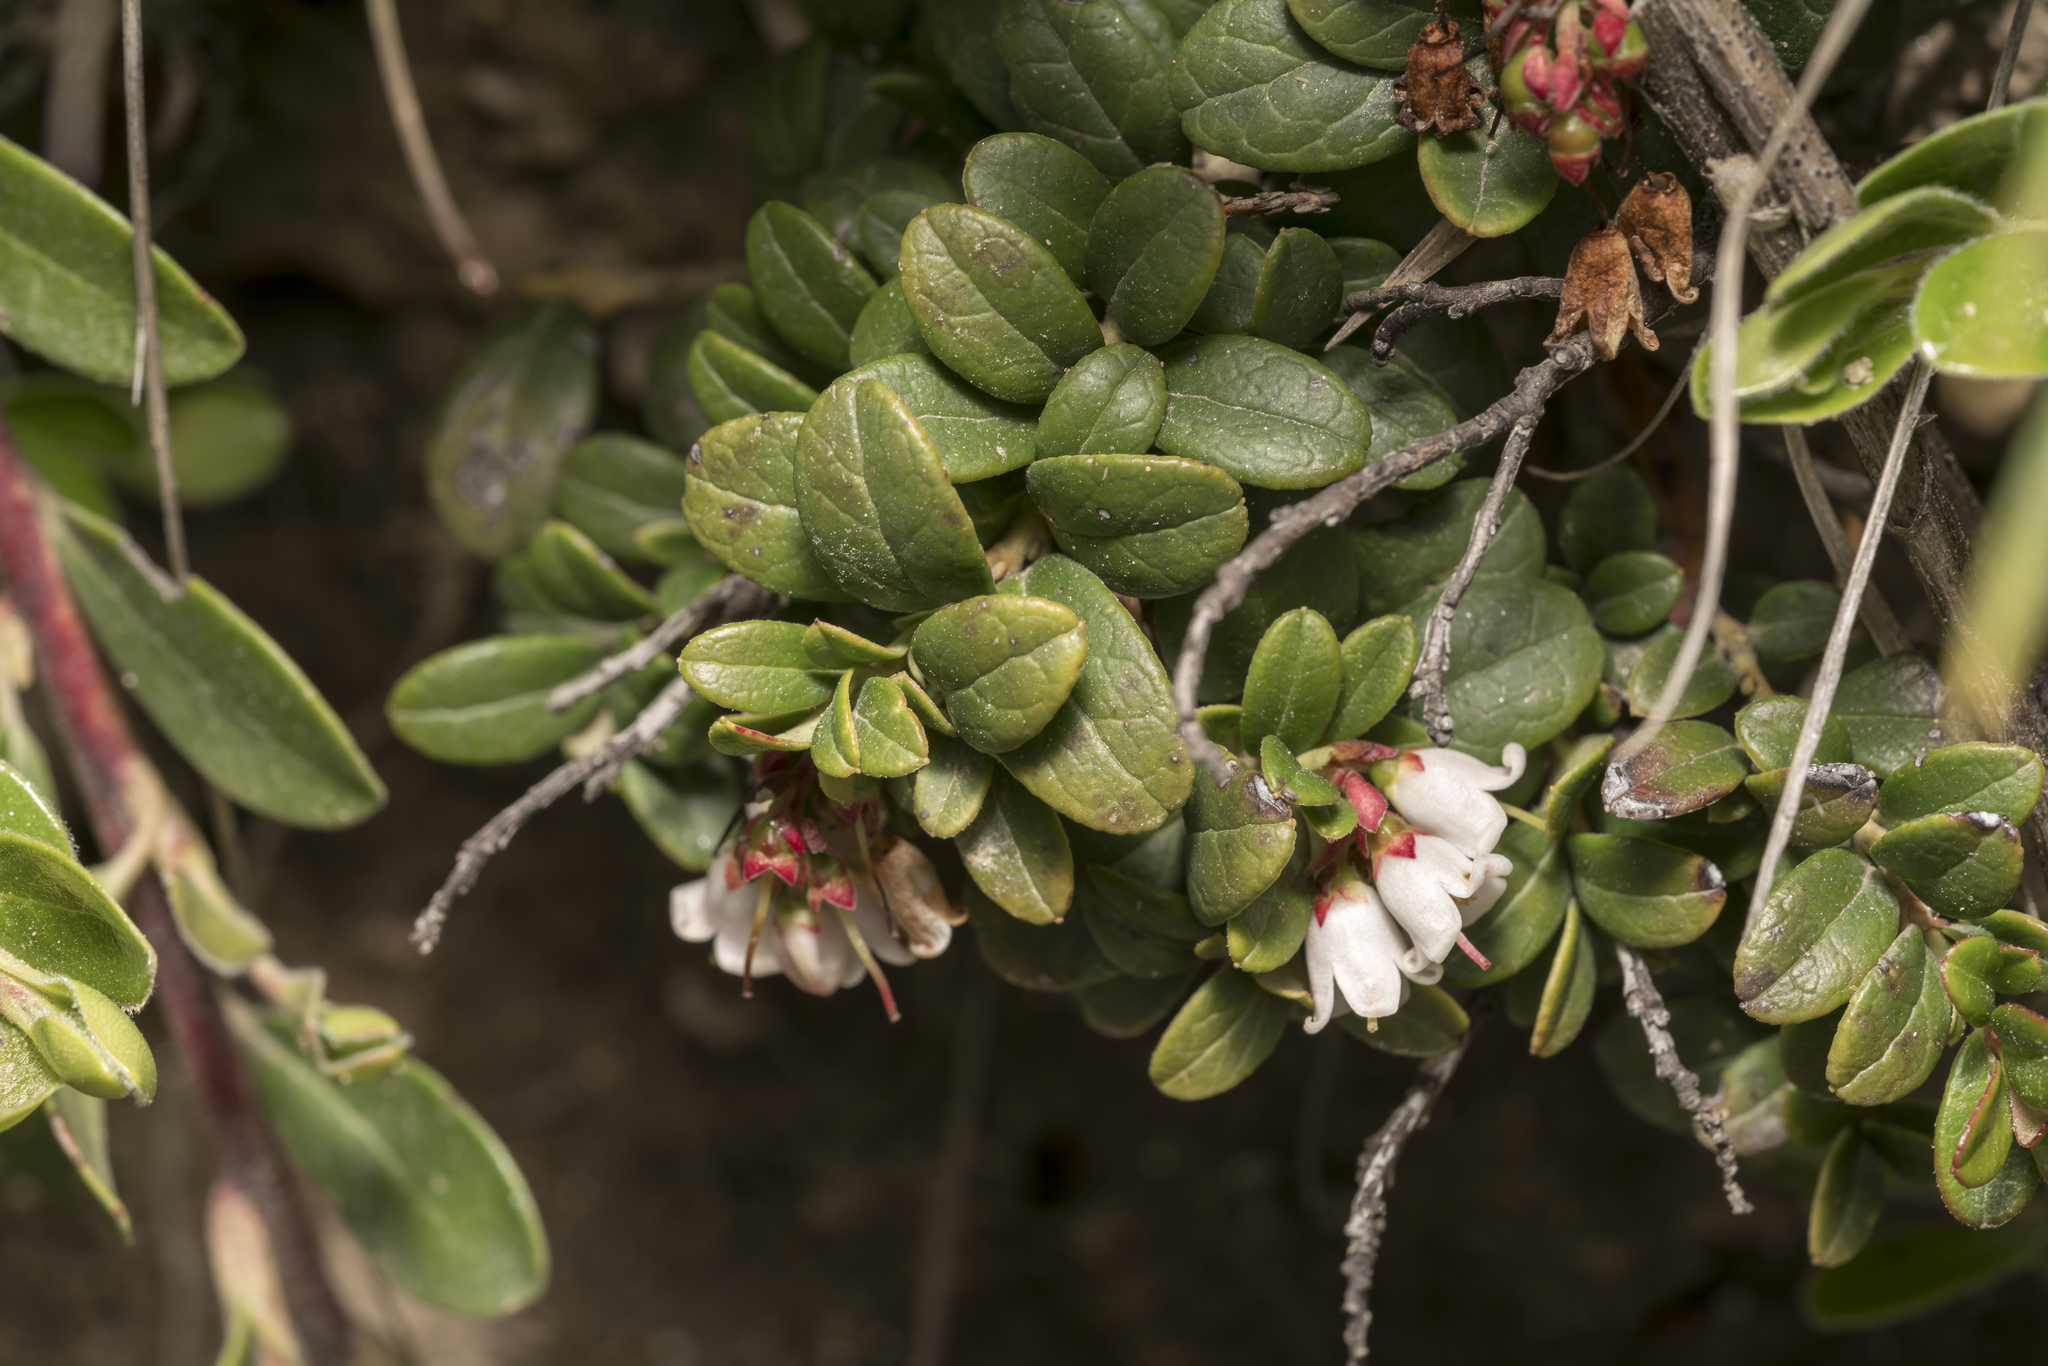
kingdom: Plantae
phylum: Tracheophyta
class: Magnoliopsida
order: Ericales
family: Ericaceae
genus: Vaccinium
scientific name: Vaccinium vitis-idaea
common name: Cowberry
